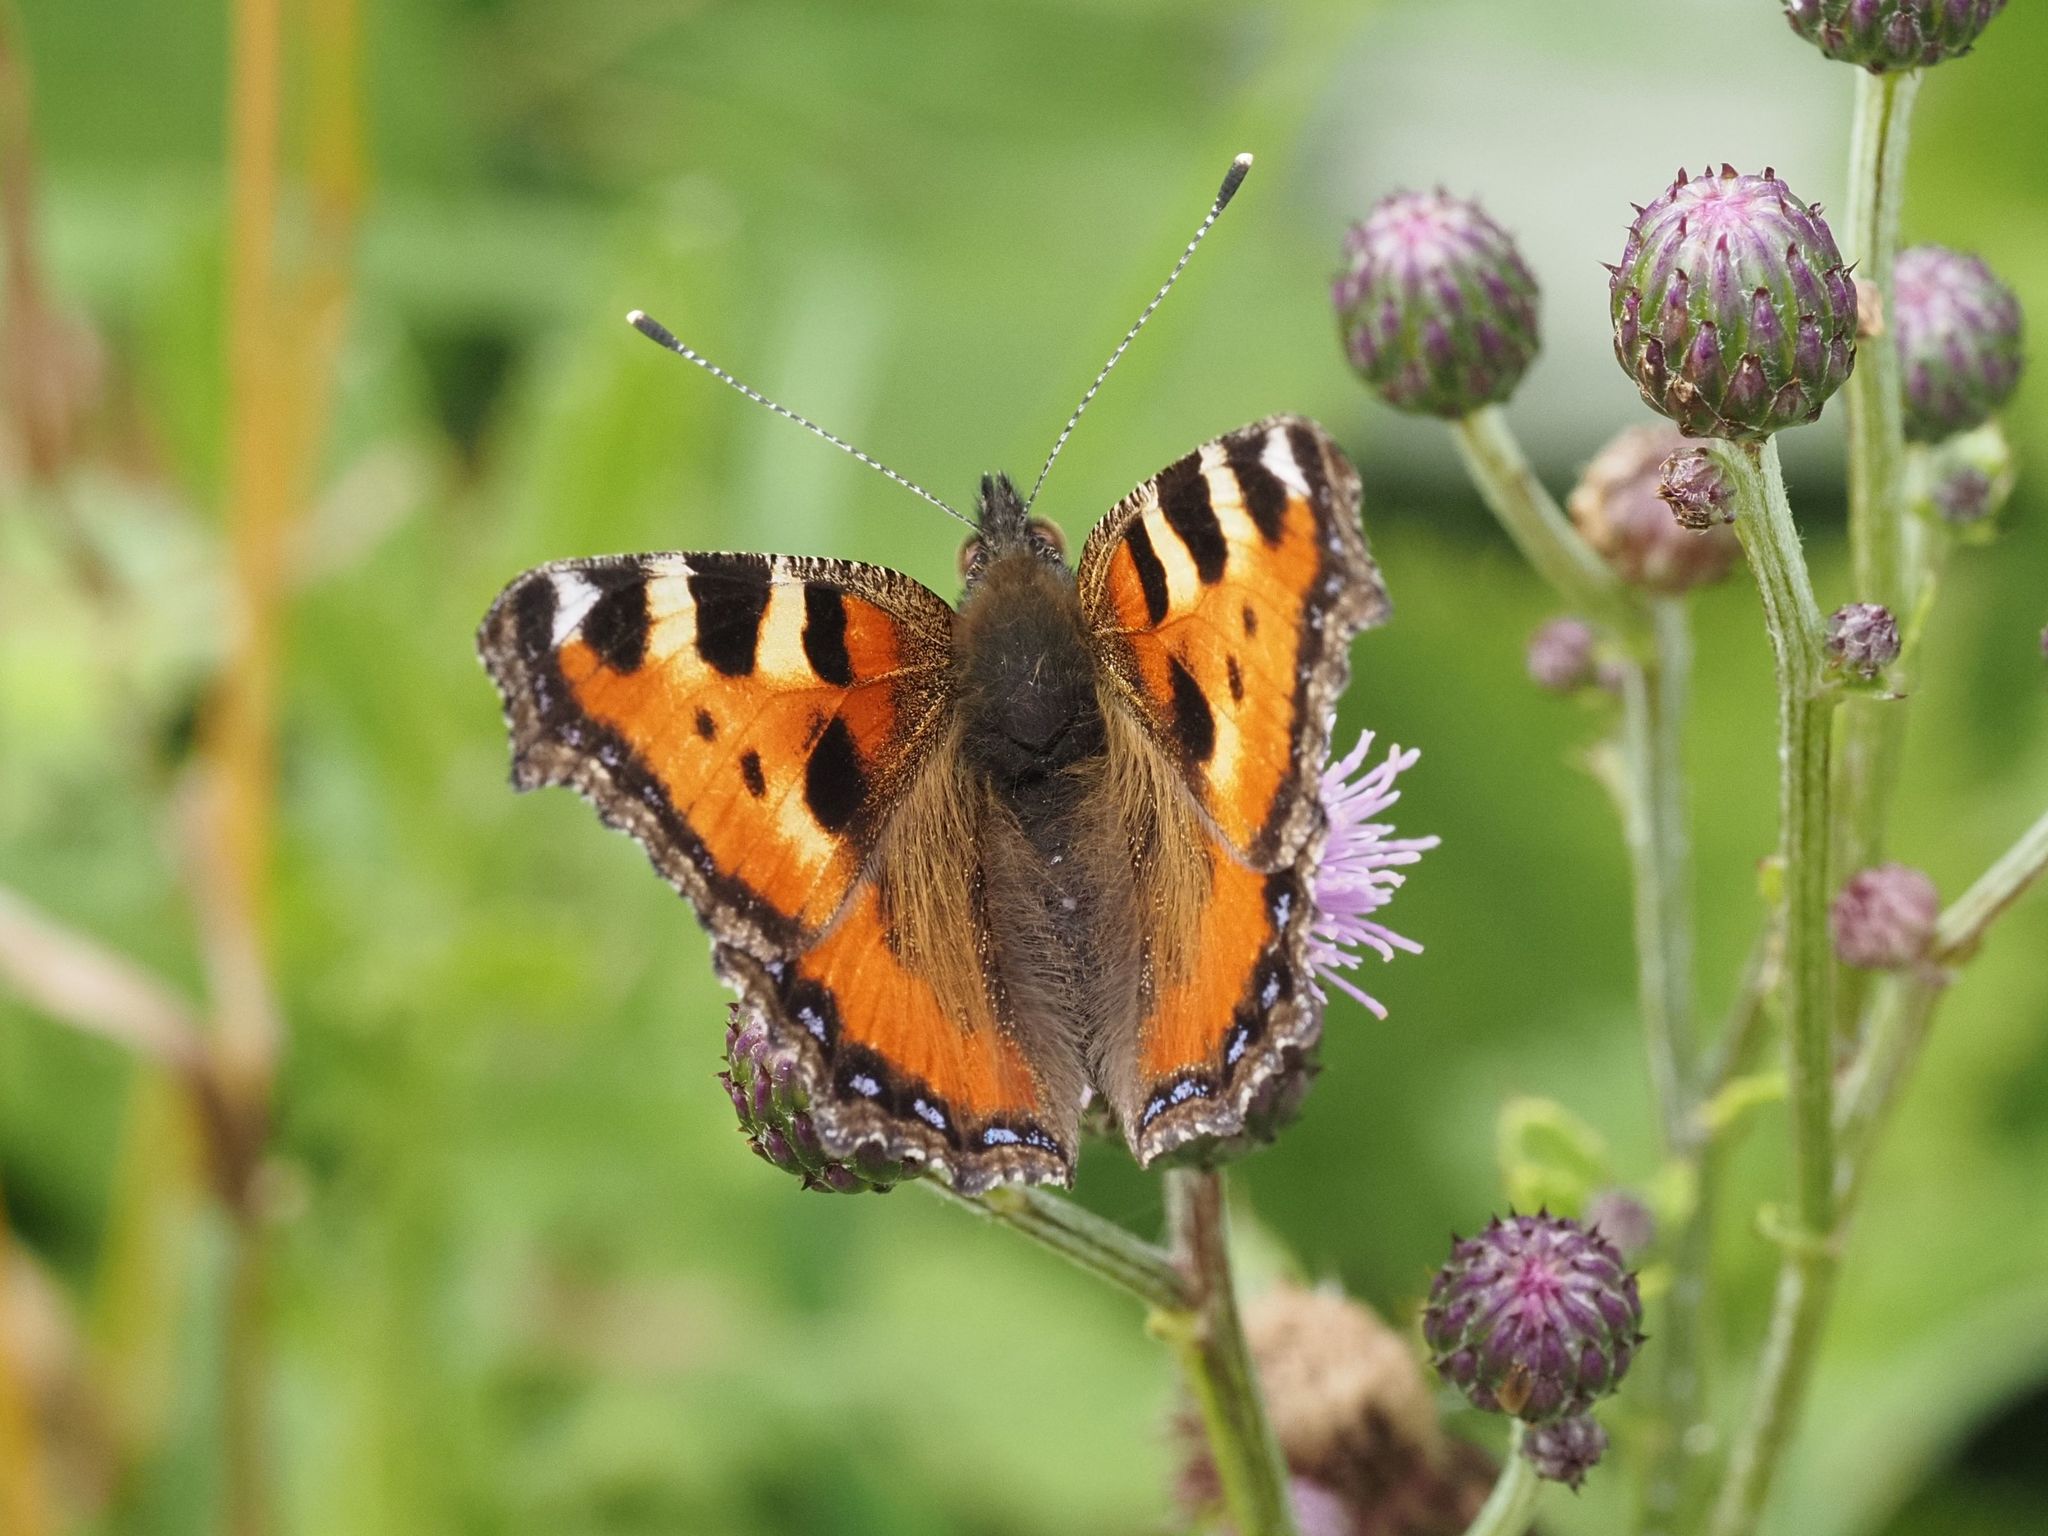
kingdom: Animalia
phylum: Arthropoda
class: Insecta
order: Lepidoptera
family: Nymphalidae
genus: Aglais
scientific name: Aglais urticae
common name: Small tortoiseshell
